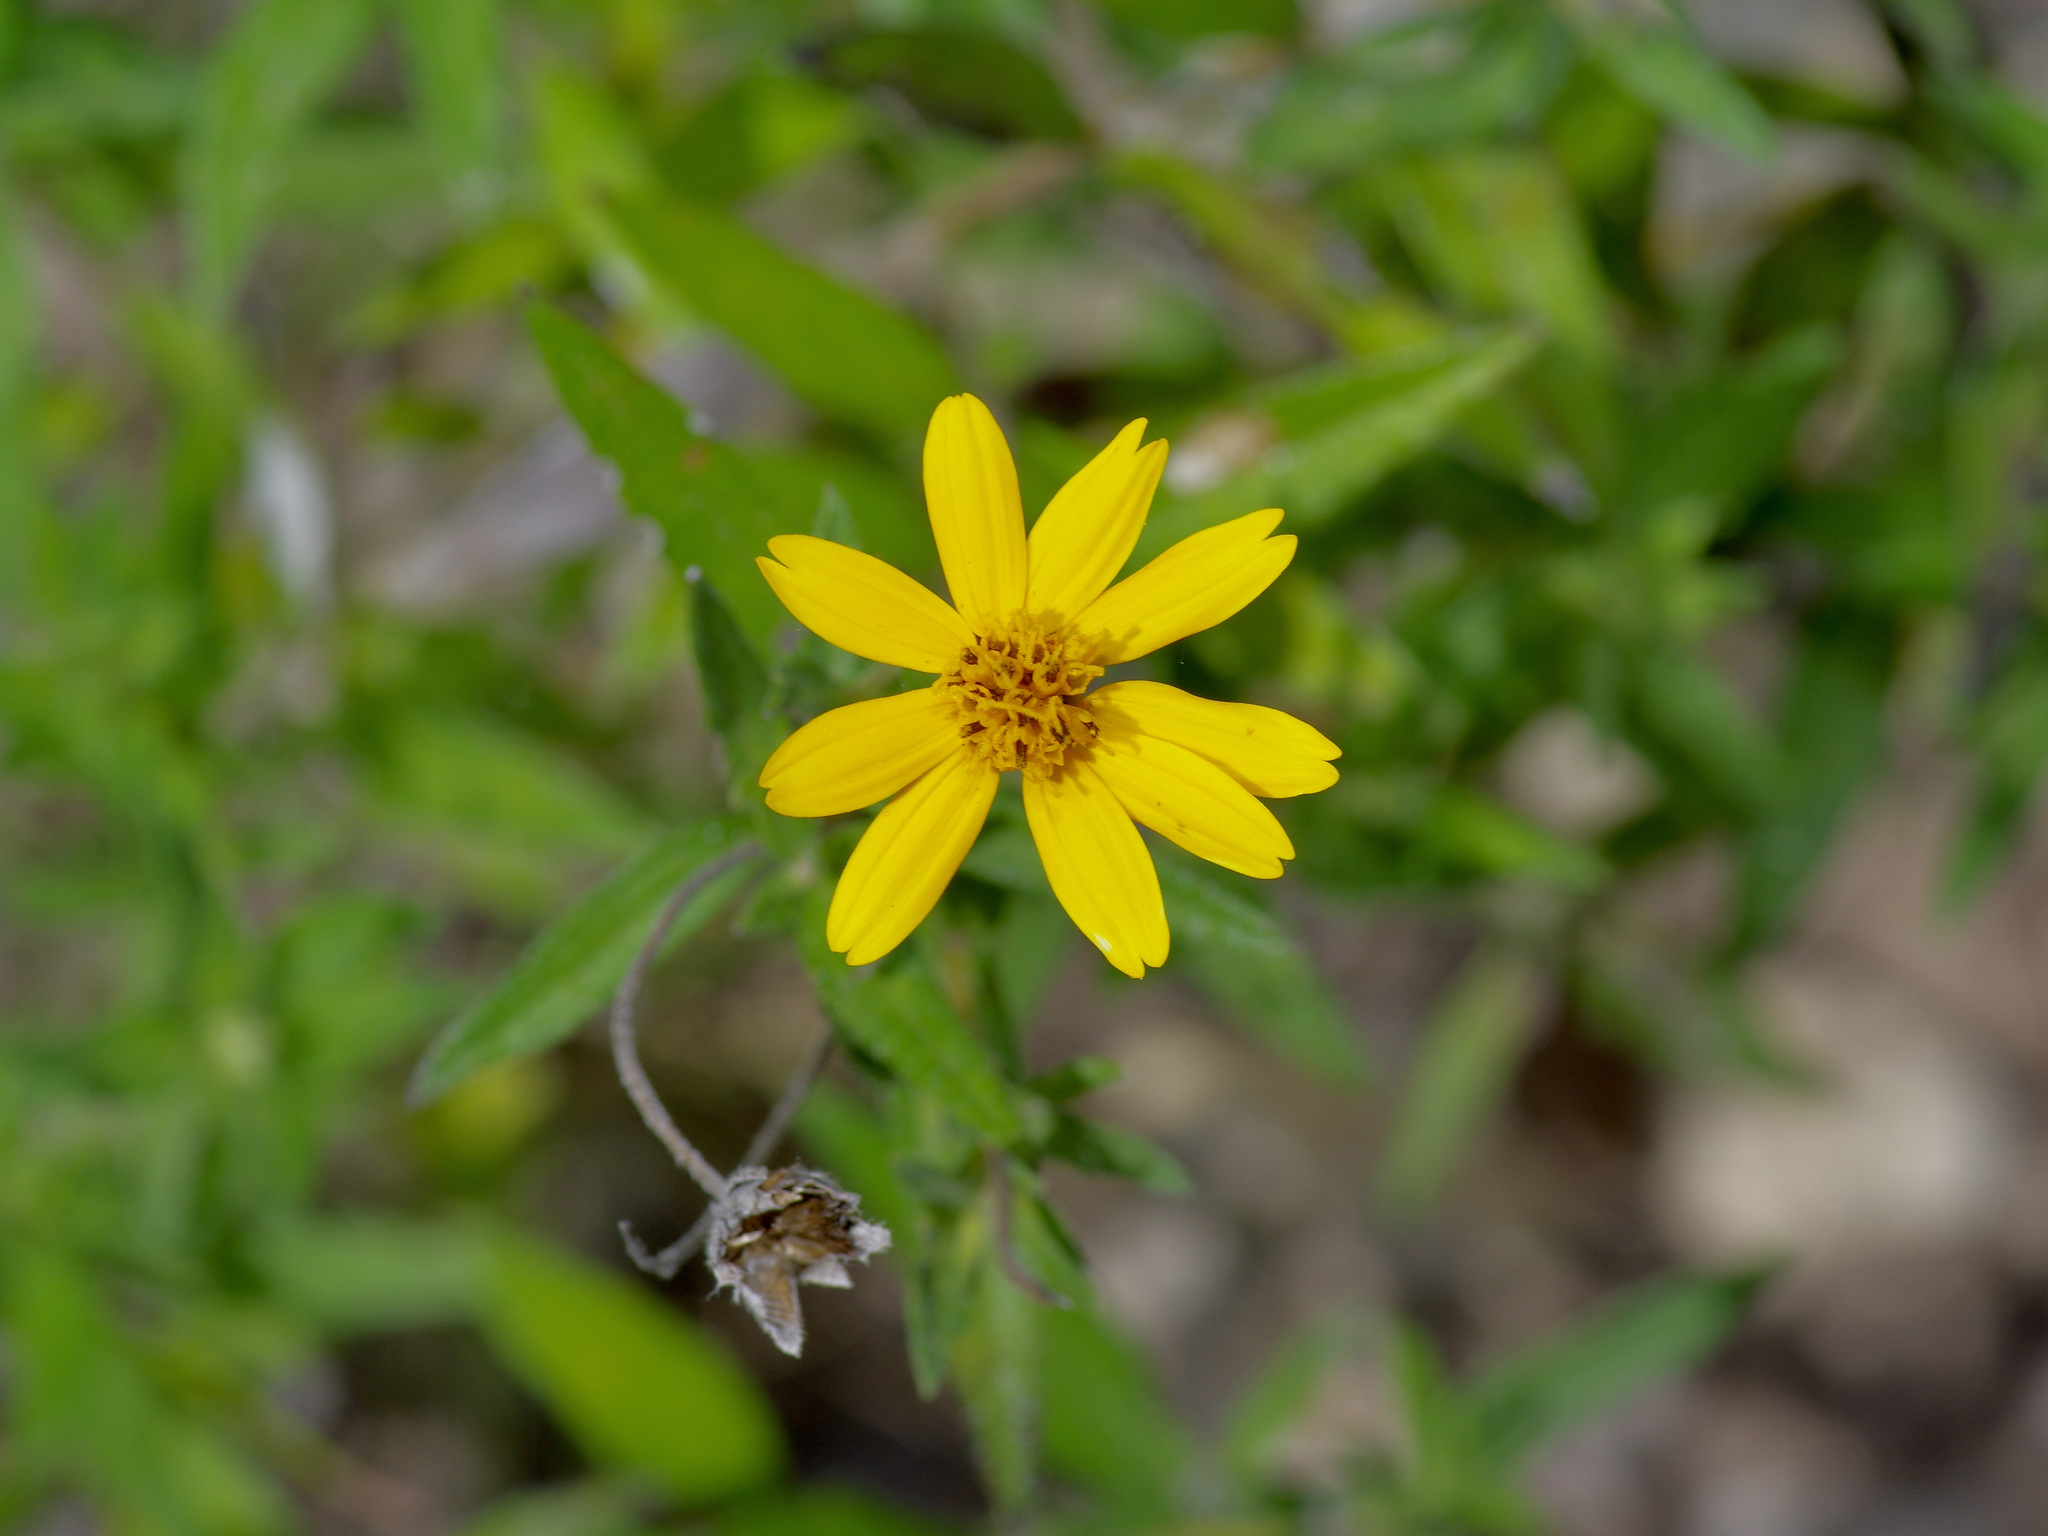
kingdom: Plantae
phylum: Tracheophyta
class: Magnoliopsida
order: Asterales
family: Asteraceae
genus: Wedelia
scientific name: Wedelia acapulcensis
